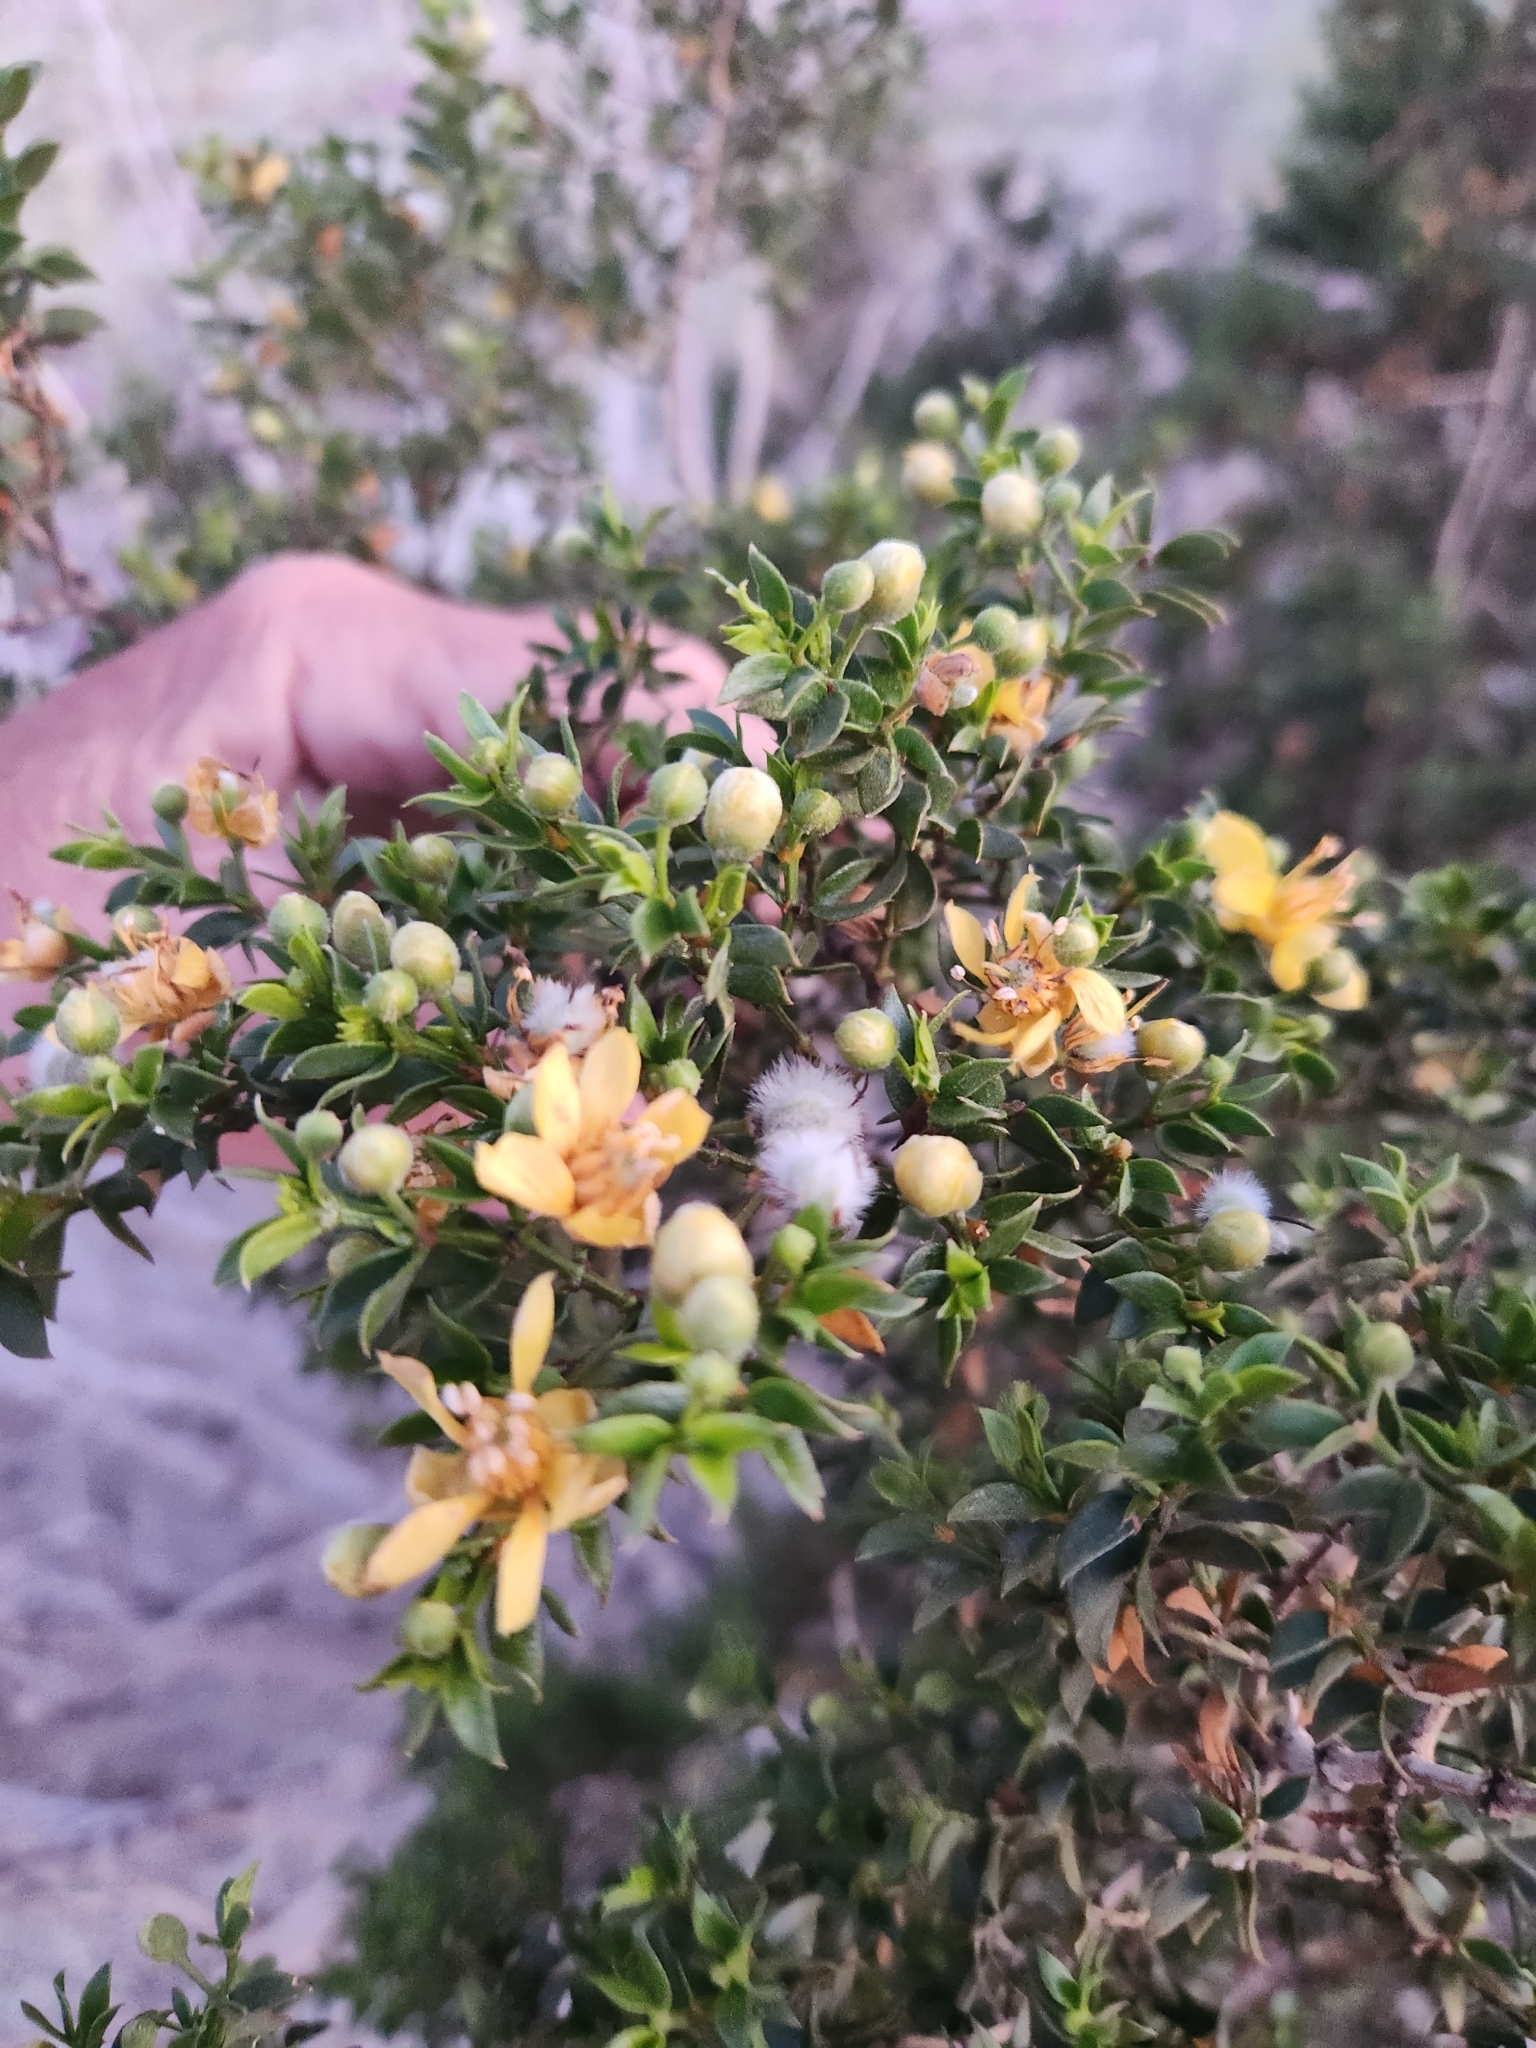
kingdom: Plantae
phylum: Tracheophyta
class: Magnoliopsida
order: Zygophyllales
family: Zygophyllaceae
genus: Larrea
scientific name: Larrea tridentata
